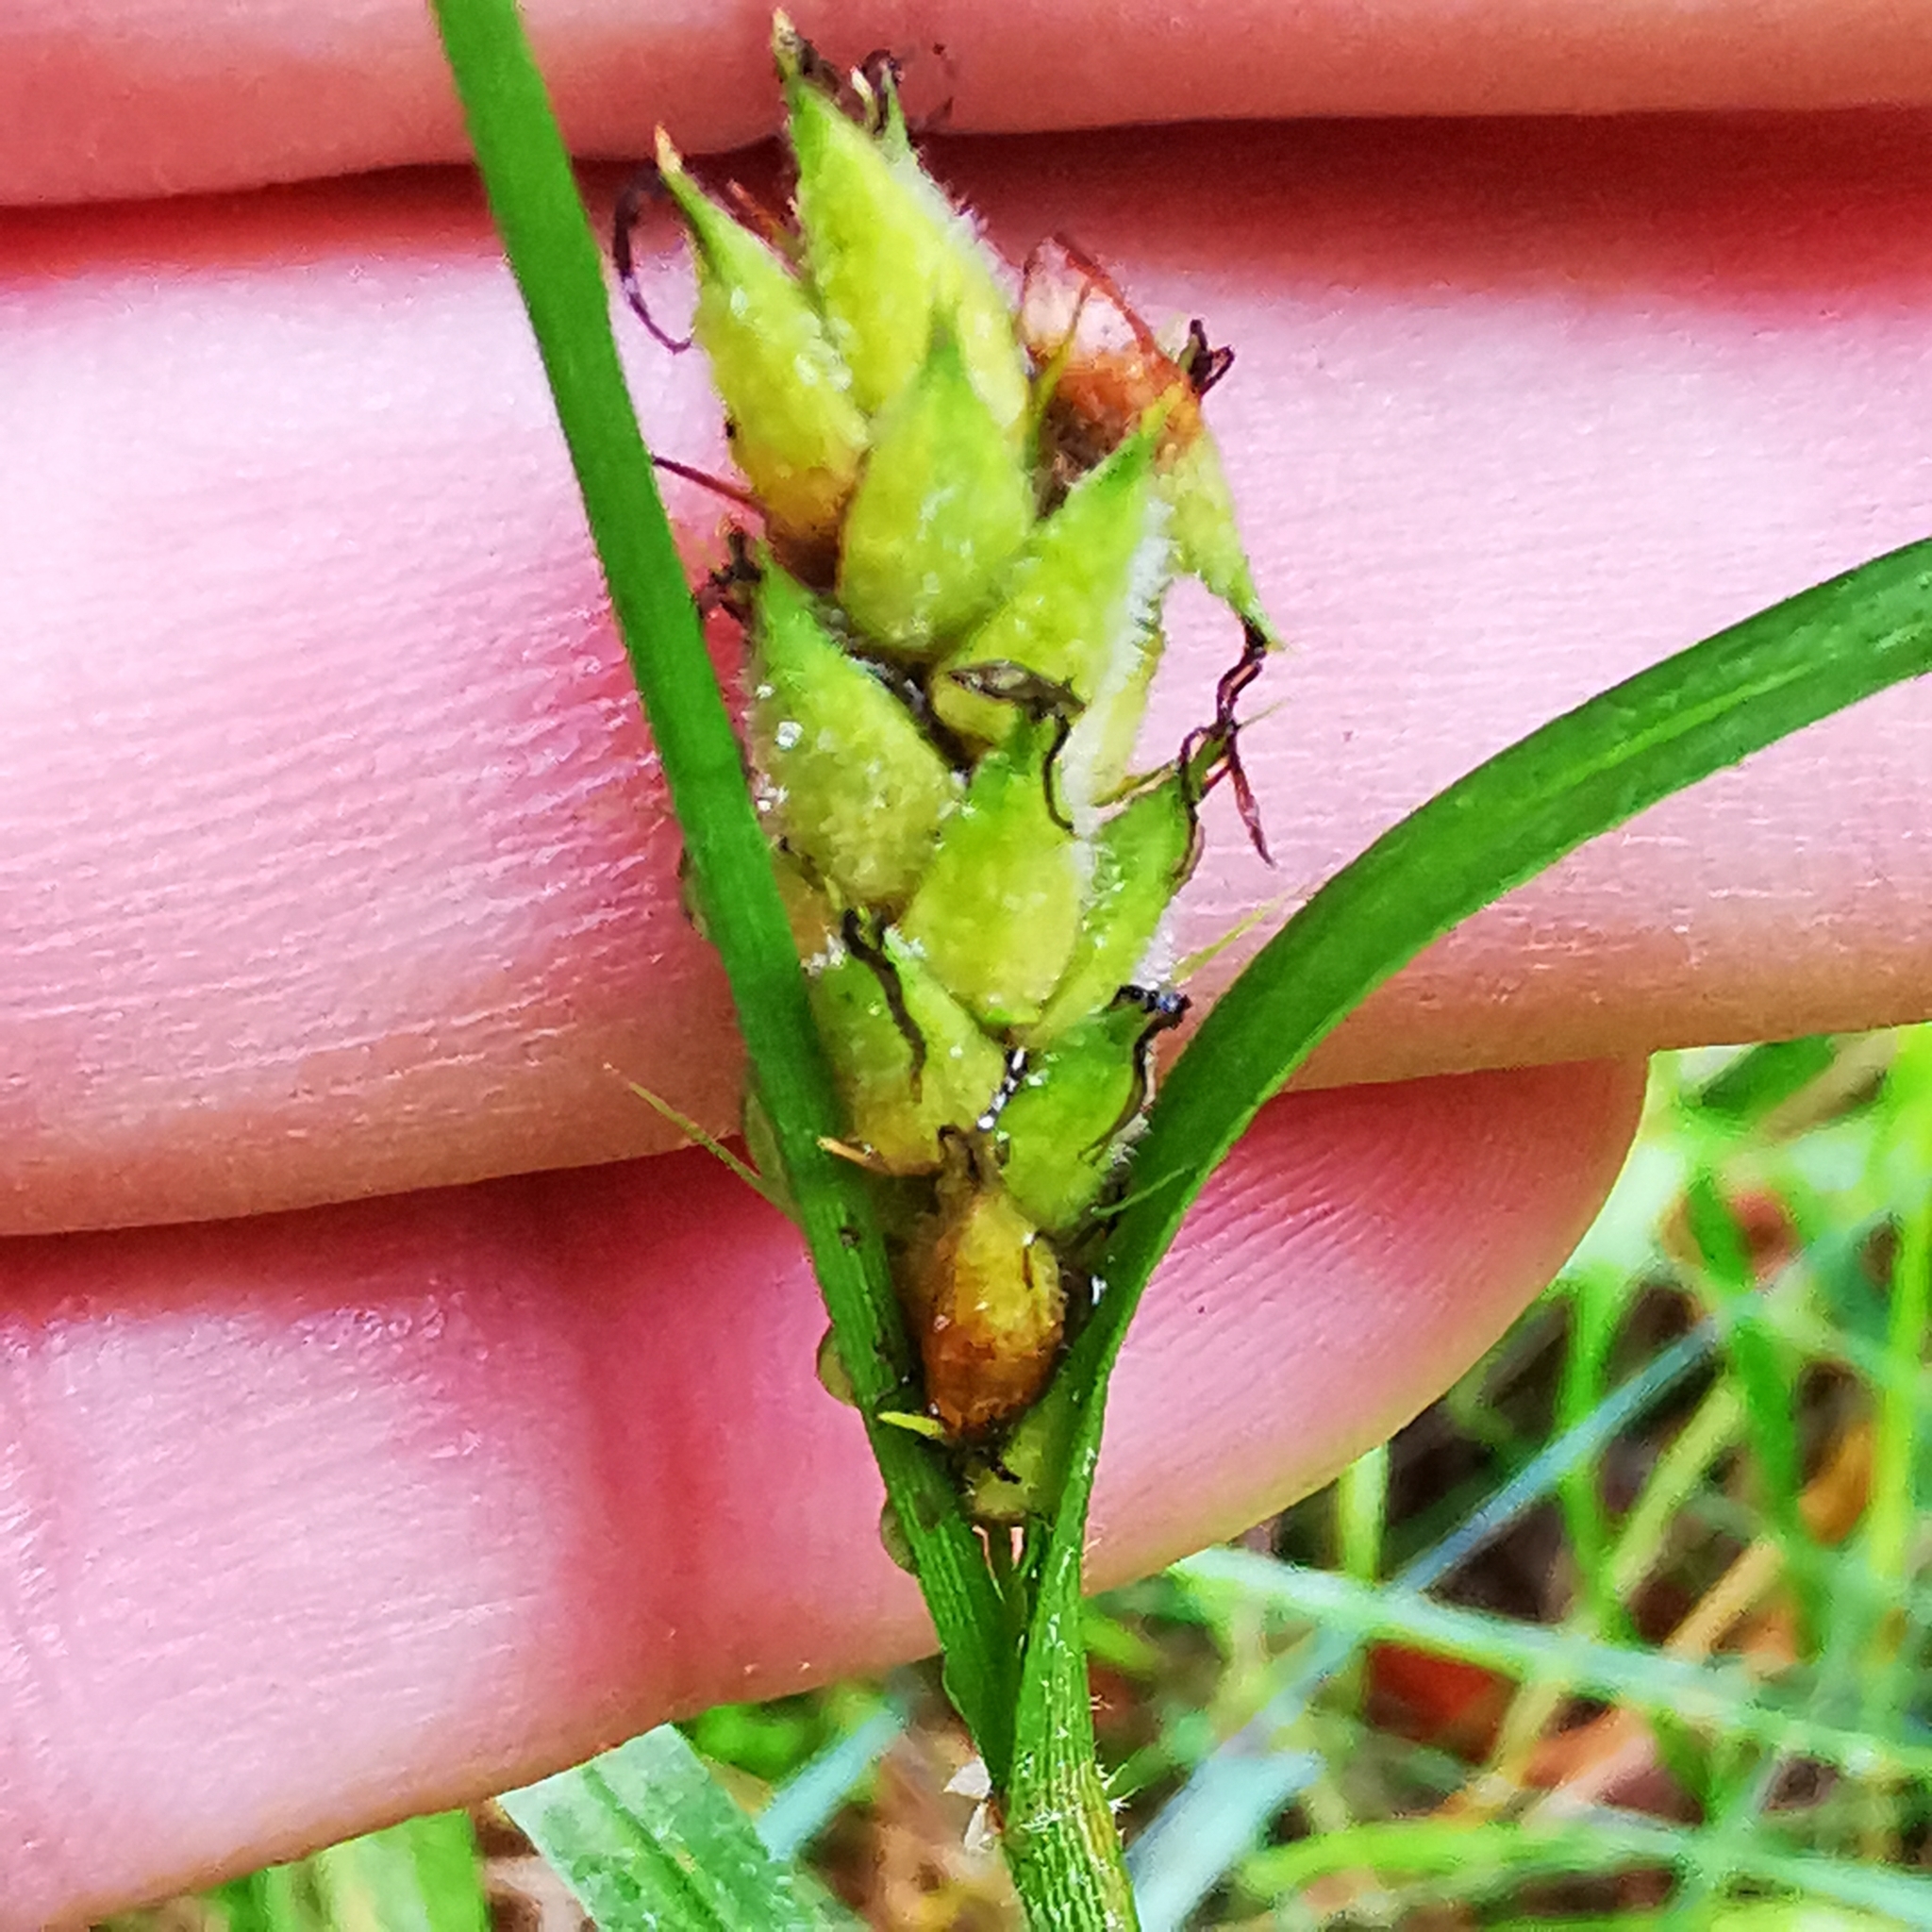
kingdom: Plantae
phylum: Tracheophyta
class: Liliopsida
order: Poales
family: Cyperaceae
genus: Carex
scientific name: Carex hirta
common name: Hairy sedge
